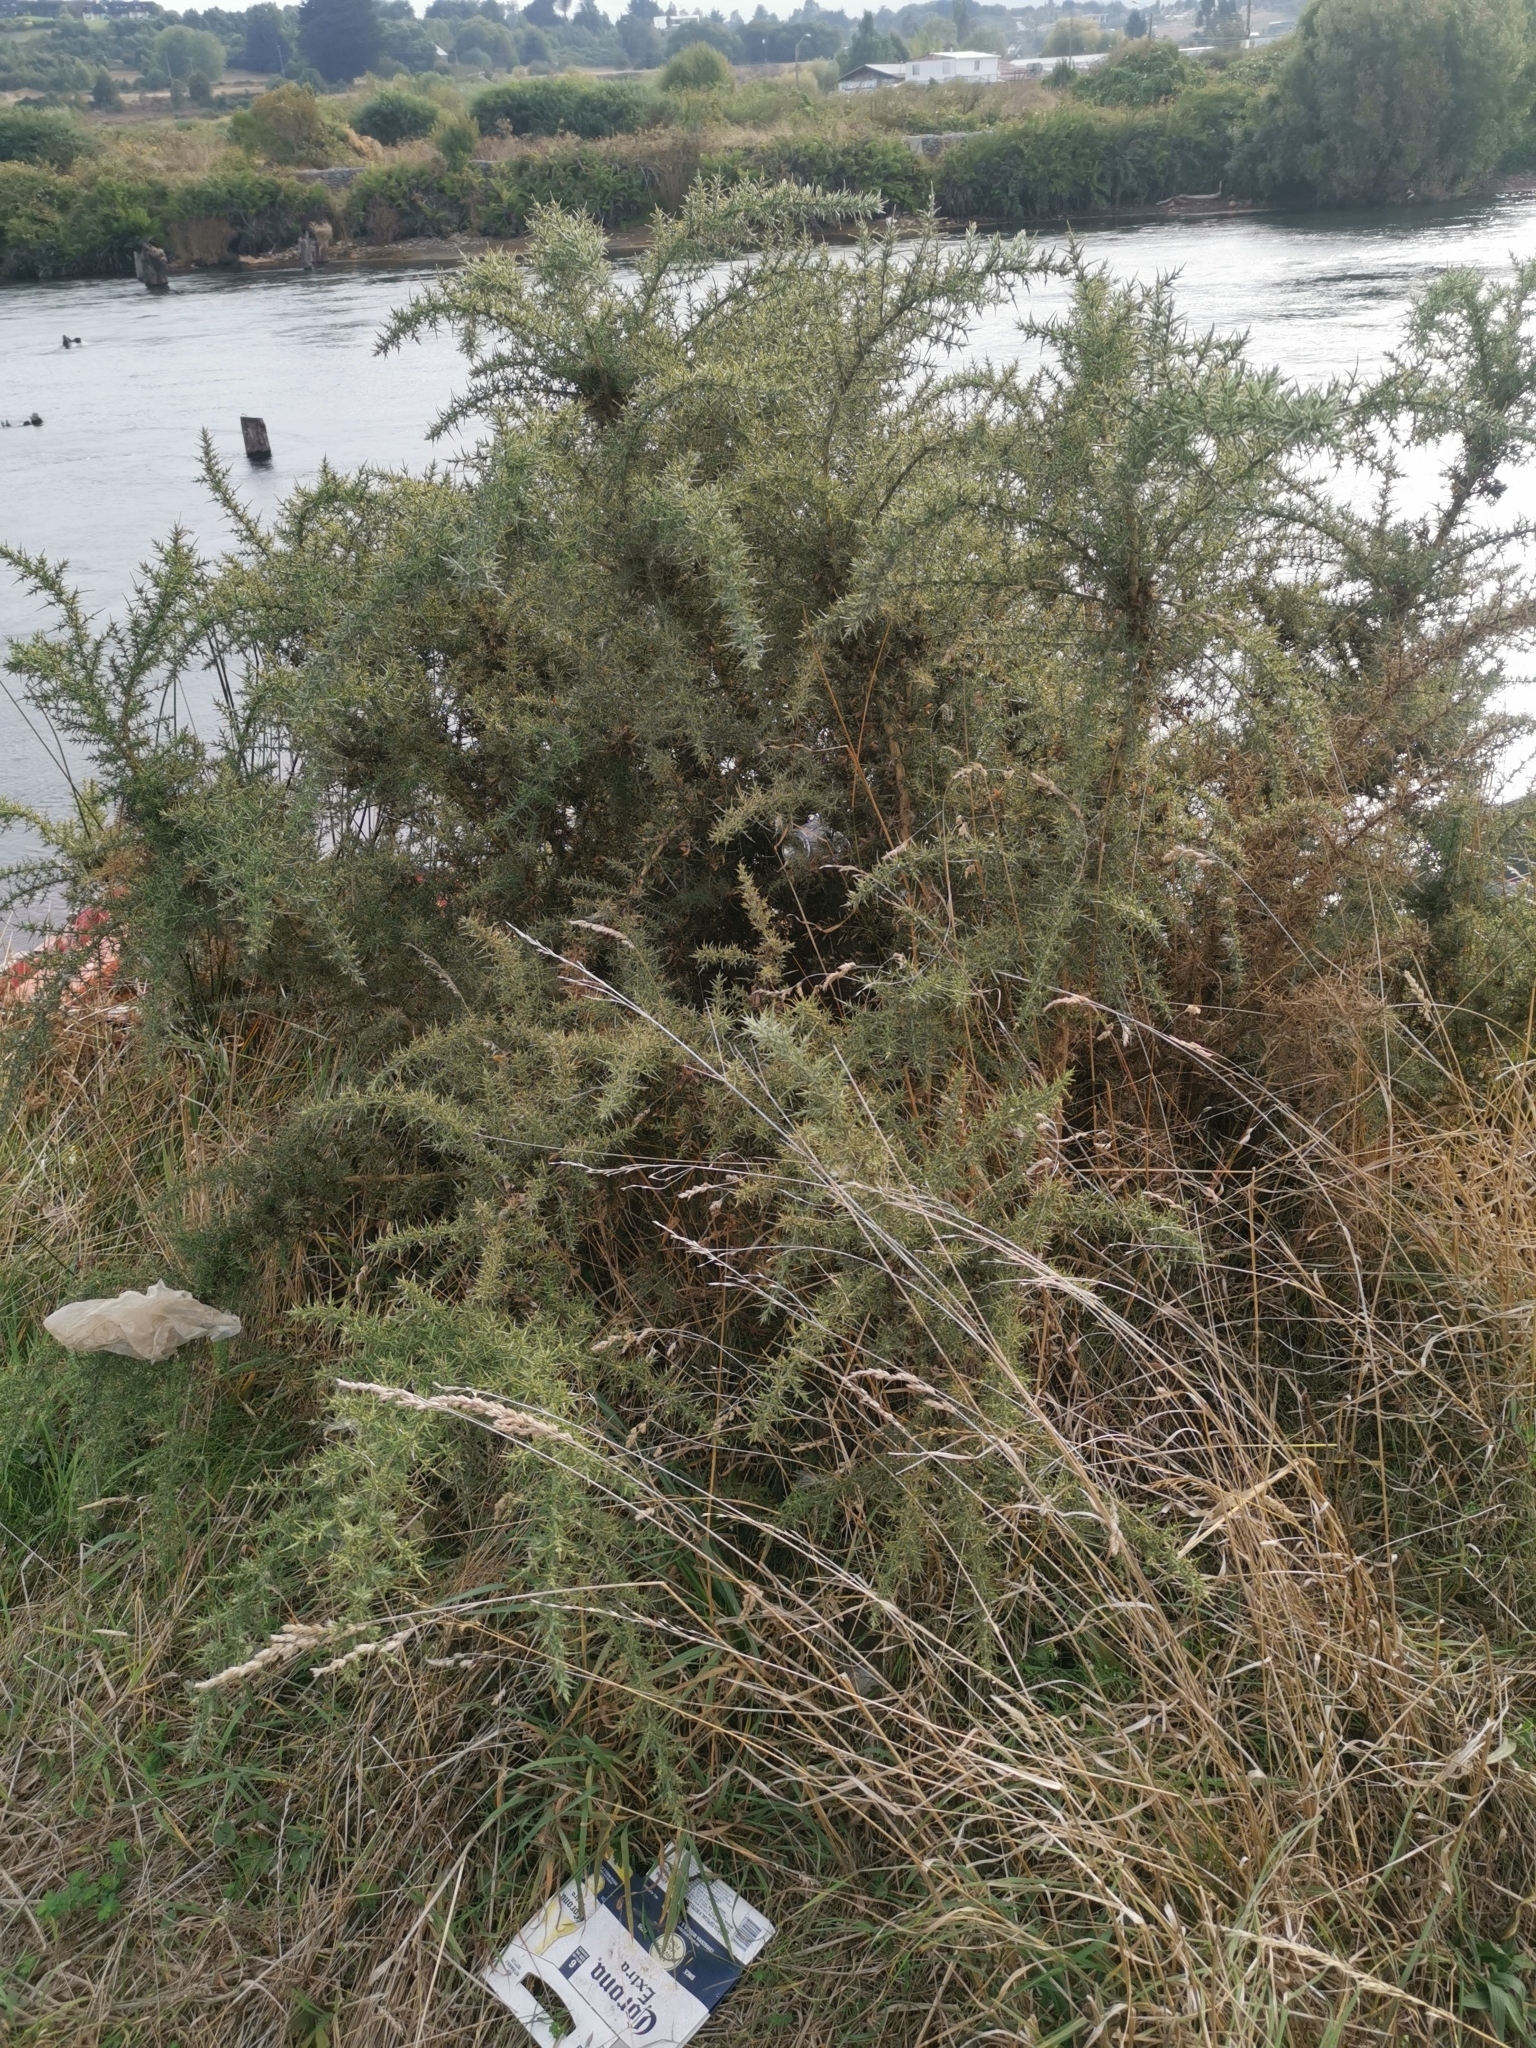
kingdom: Plantae
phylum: Tracheophyta
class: Magnoliopsida
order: Fabales
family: Fabaceae
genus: Ulex
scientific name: Ulex europaeus
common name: Common gorse
